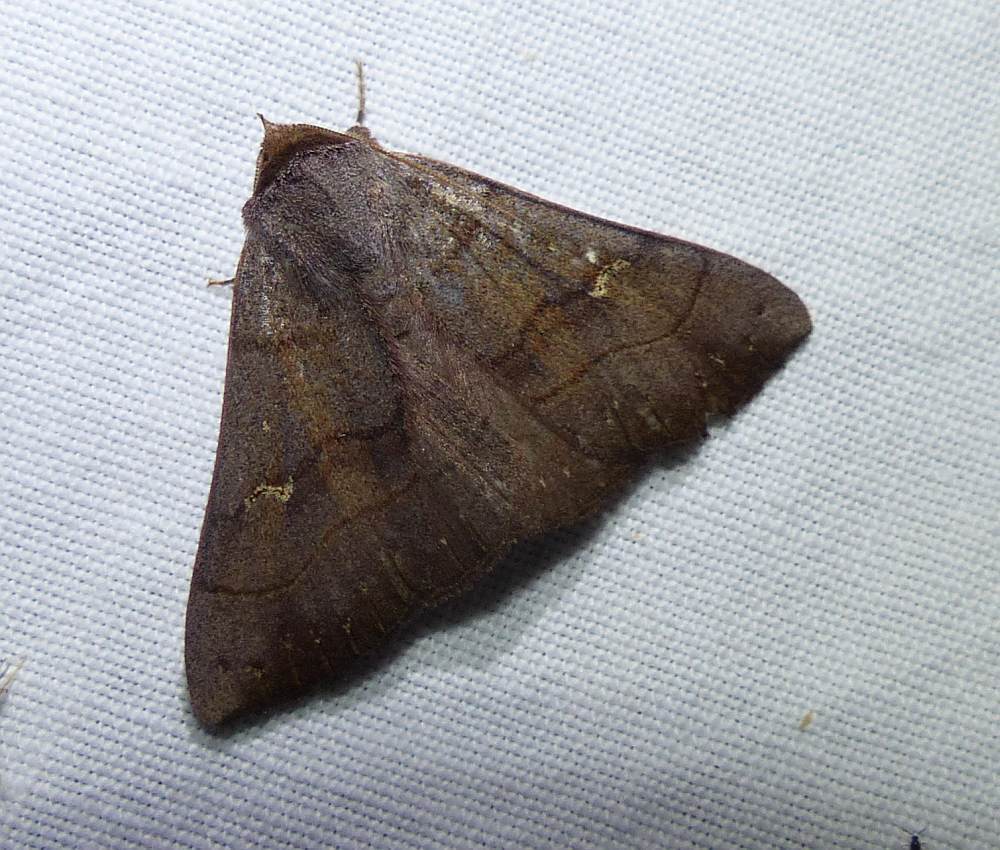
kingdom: Animalia
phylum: Arthropoda
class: Insecta
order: Lepidoptera
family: Erebidae
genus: Panopoda
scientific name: Panopoda rufimargo
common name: Red-lined panopoda moth
